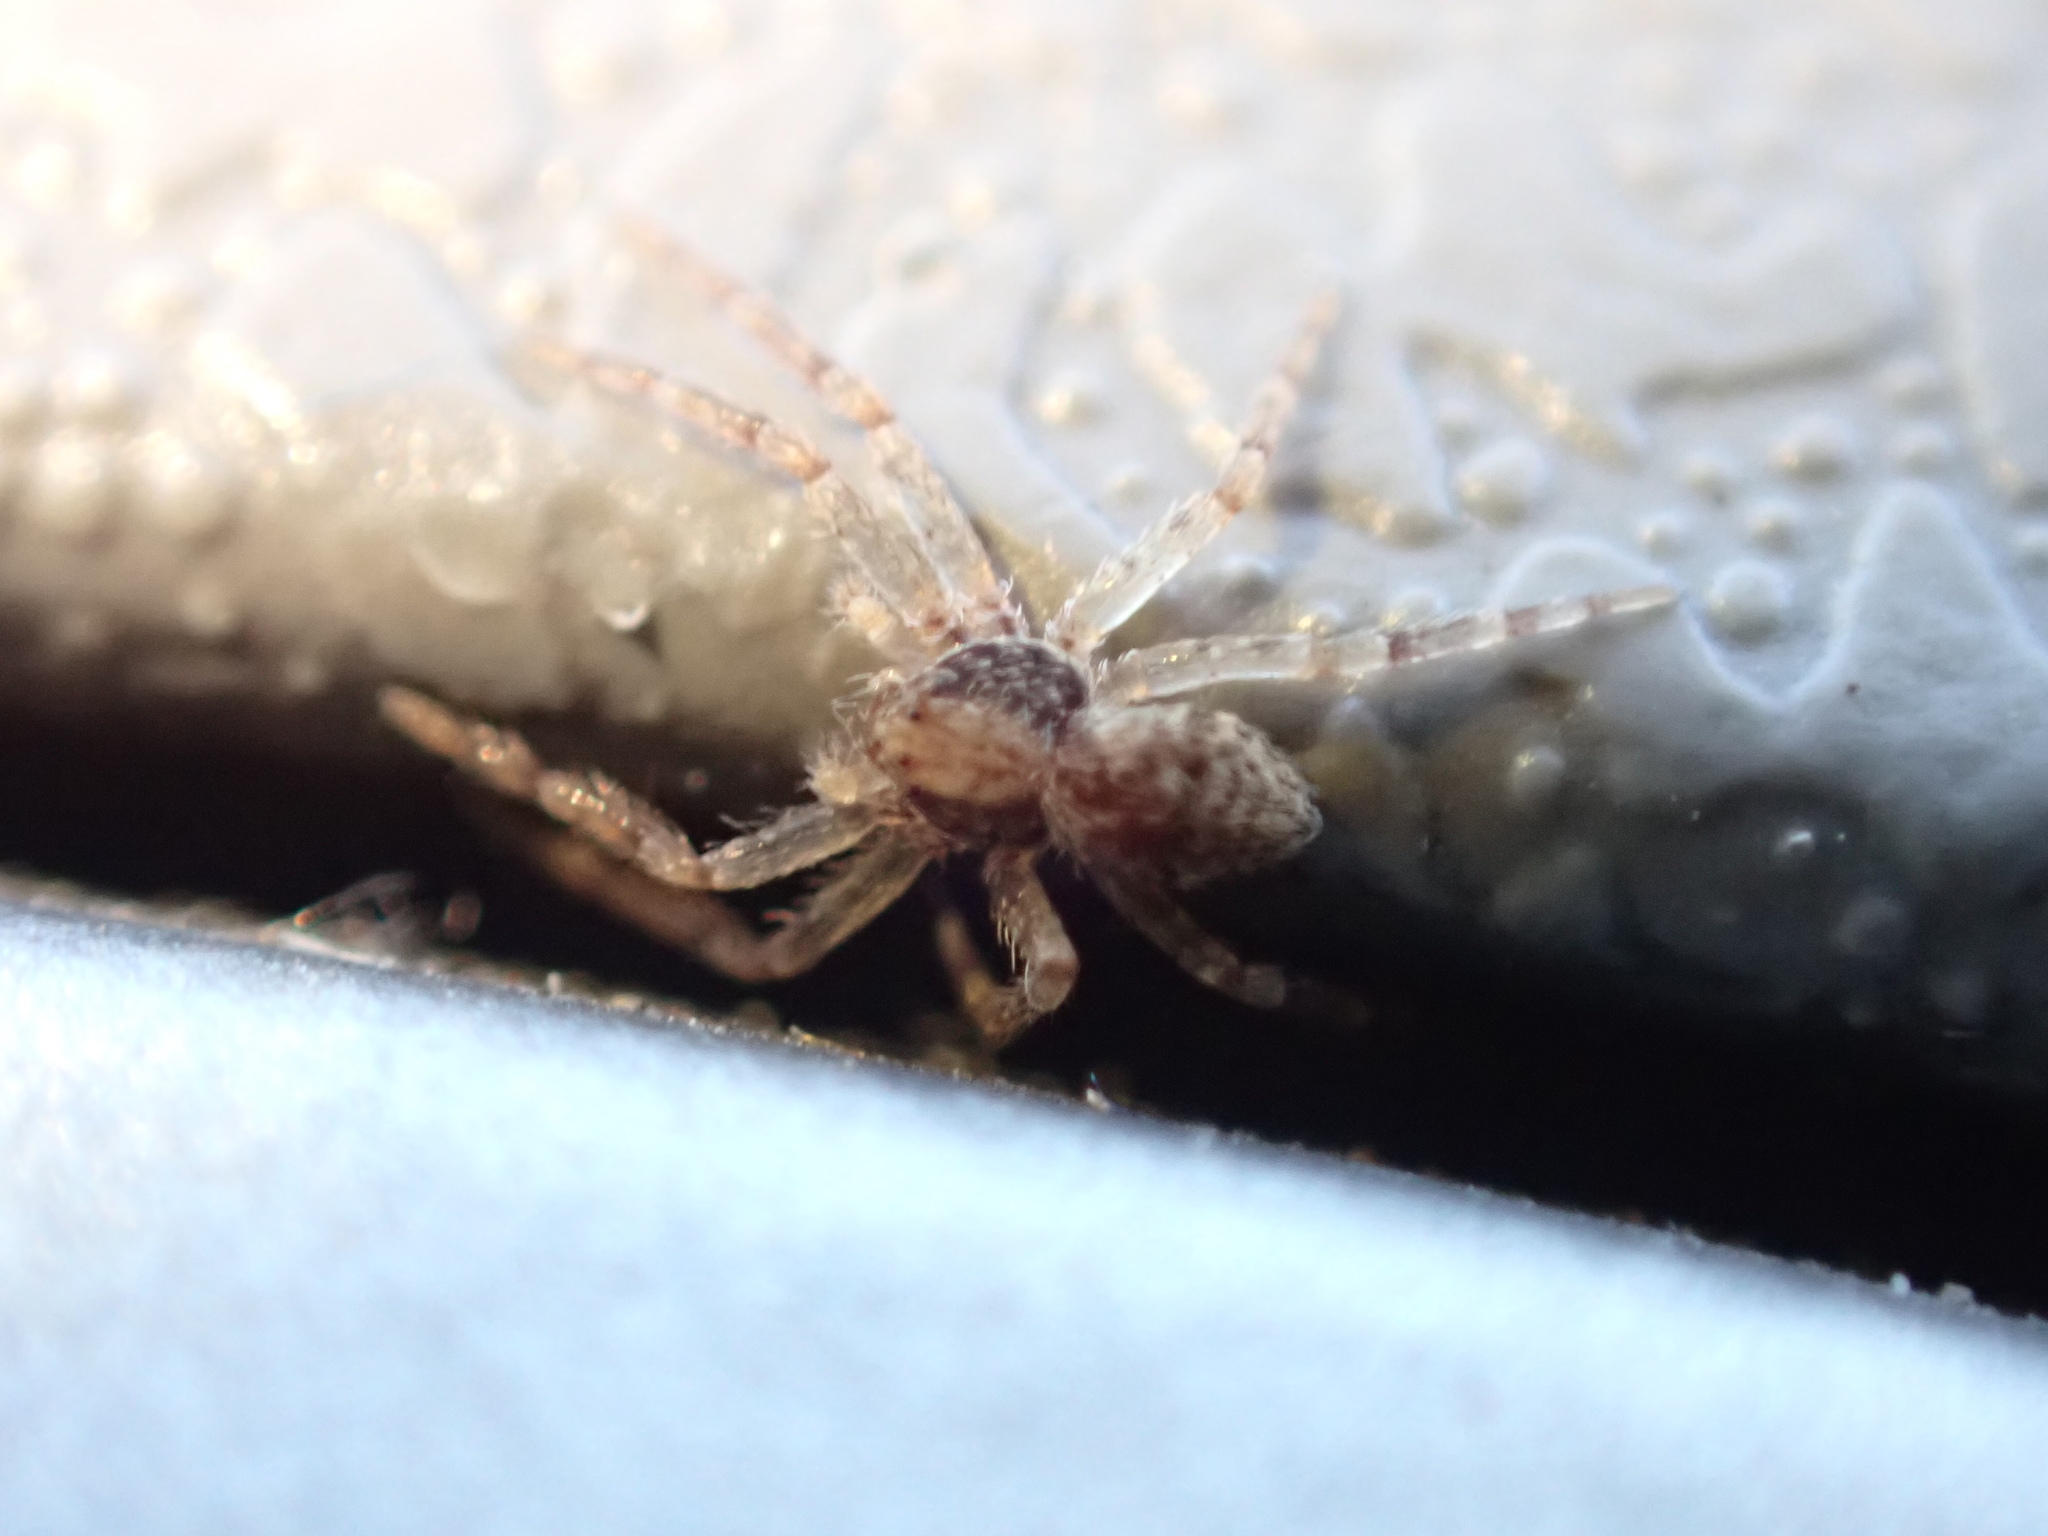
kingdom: Animalia
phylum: Arthropoda
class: Arachnida
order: Araneae
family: Philodromidae
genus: Philodromus
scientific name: Philodromus
